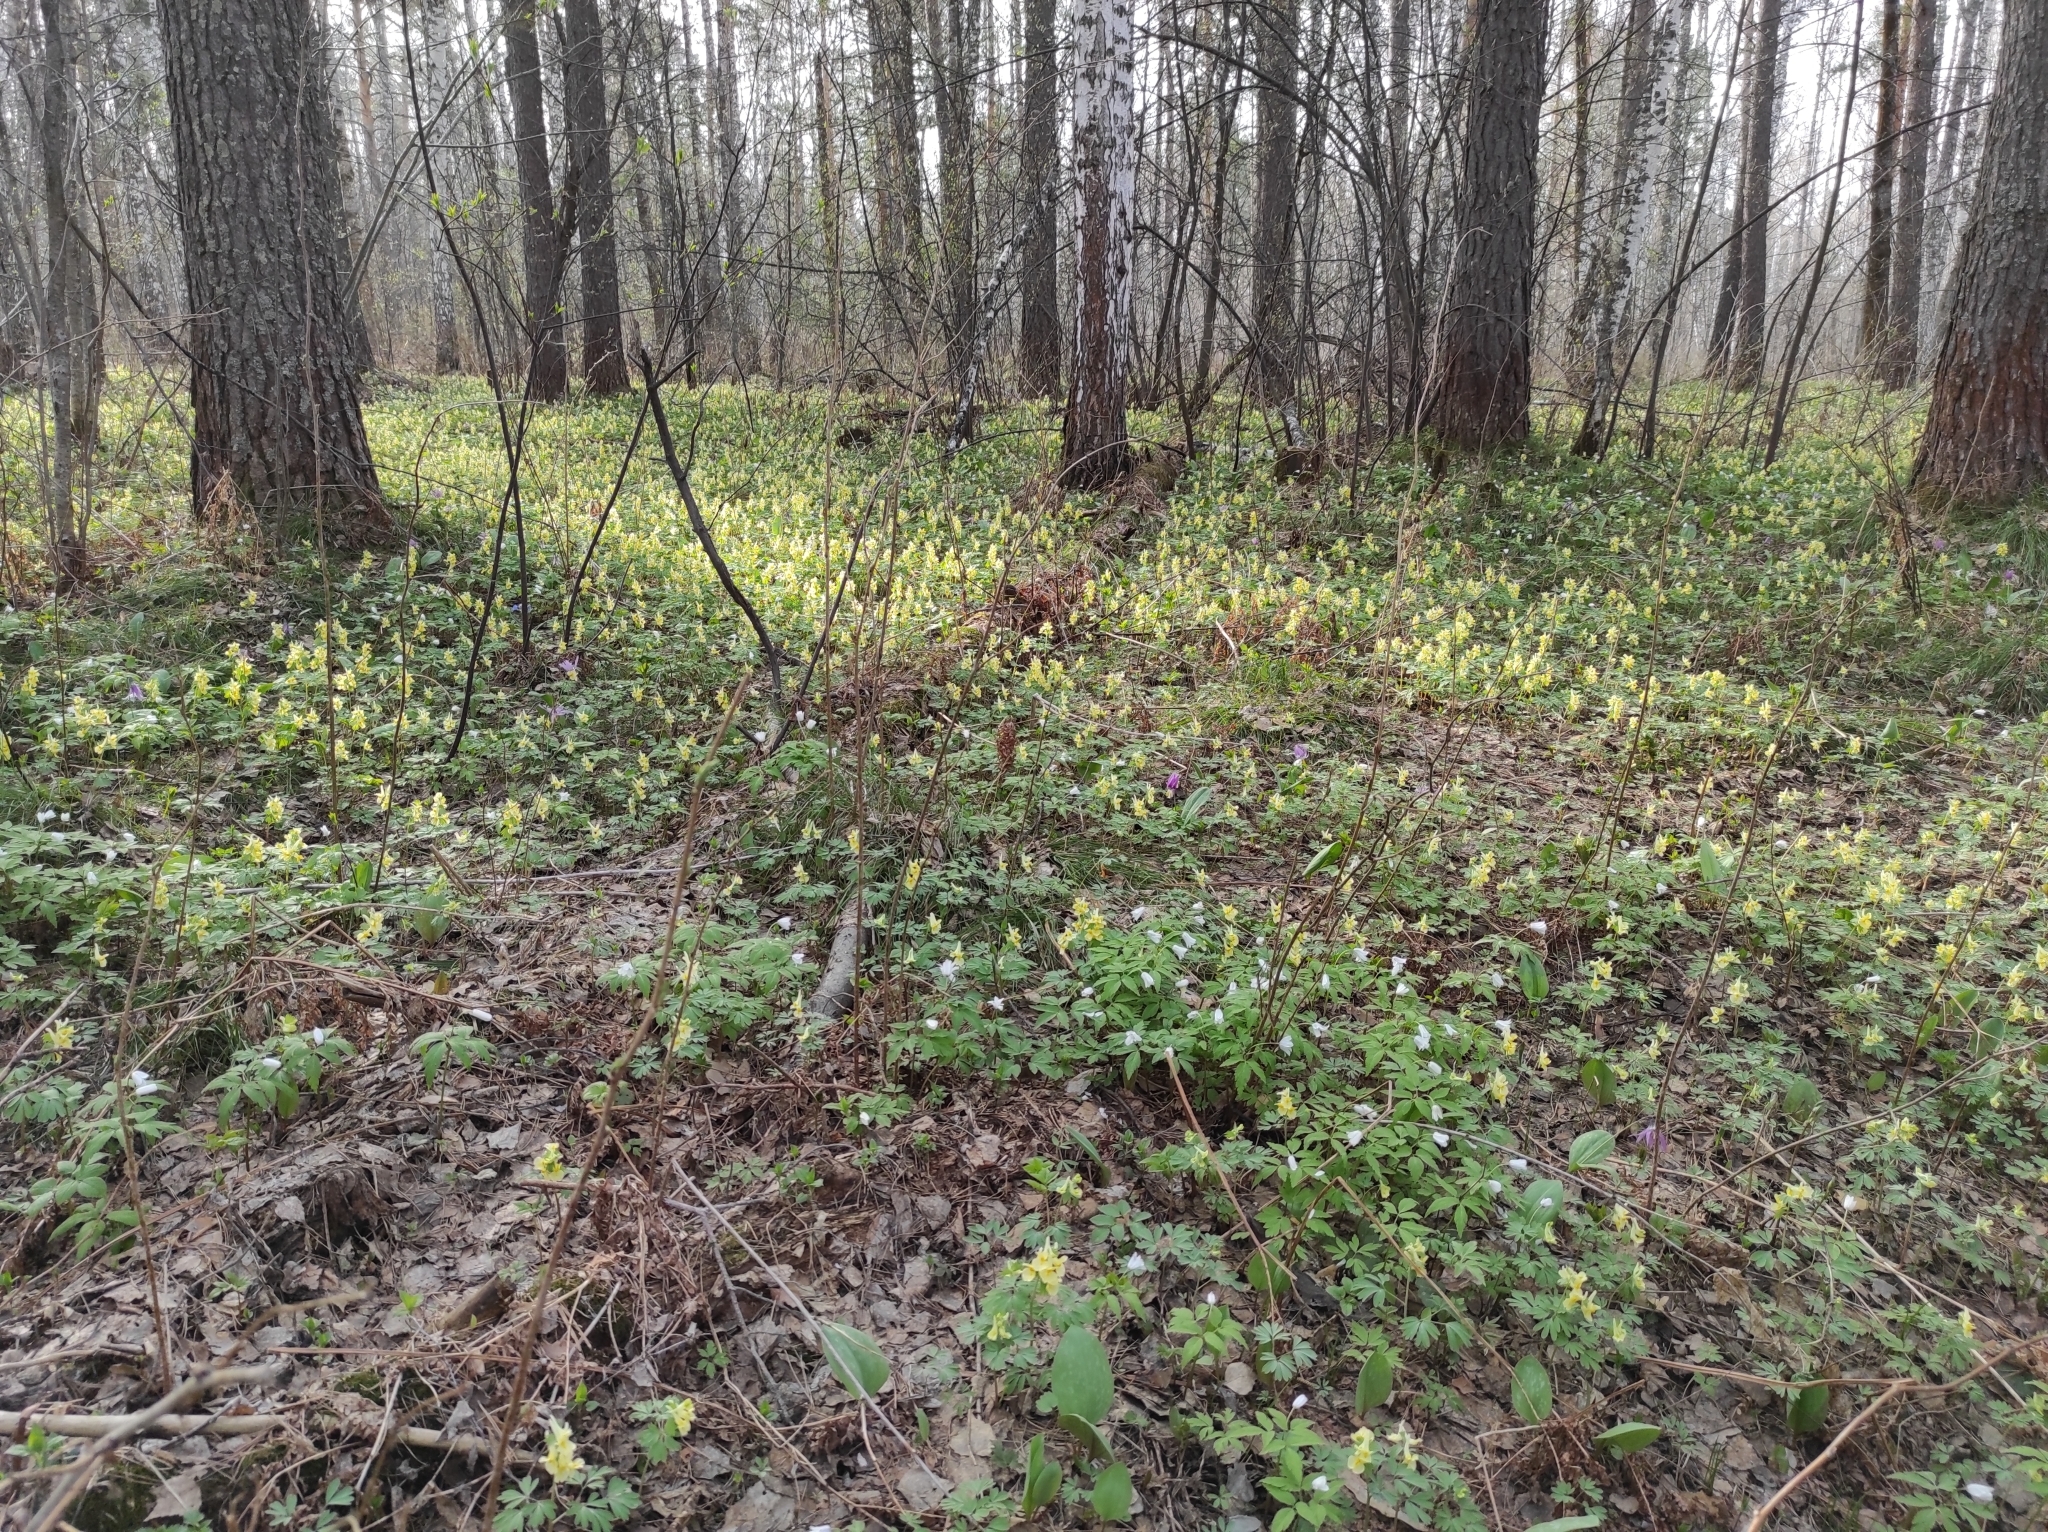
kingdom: Plantae
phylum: Tracheophyta
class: Liliopsida
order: Liliales
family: Liliaceae
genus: Erythronium
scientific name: Erythronium sibiricum
